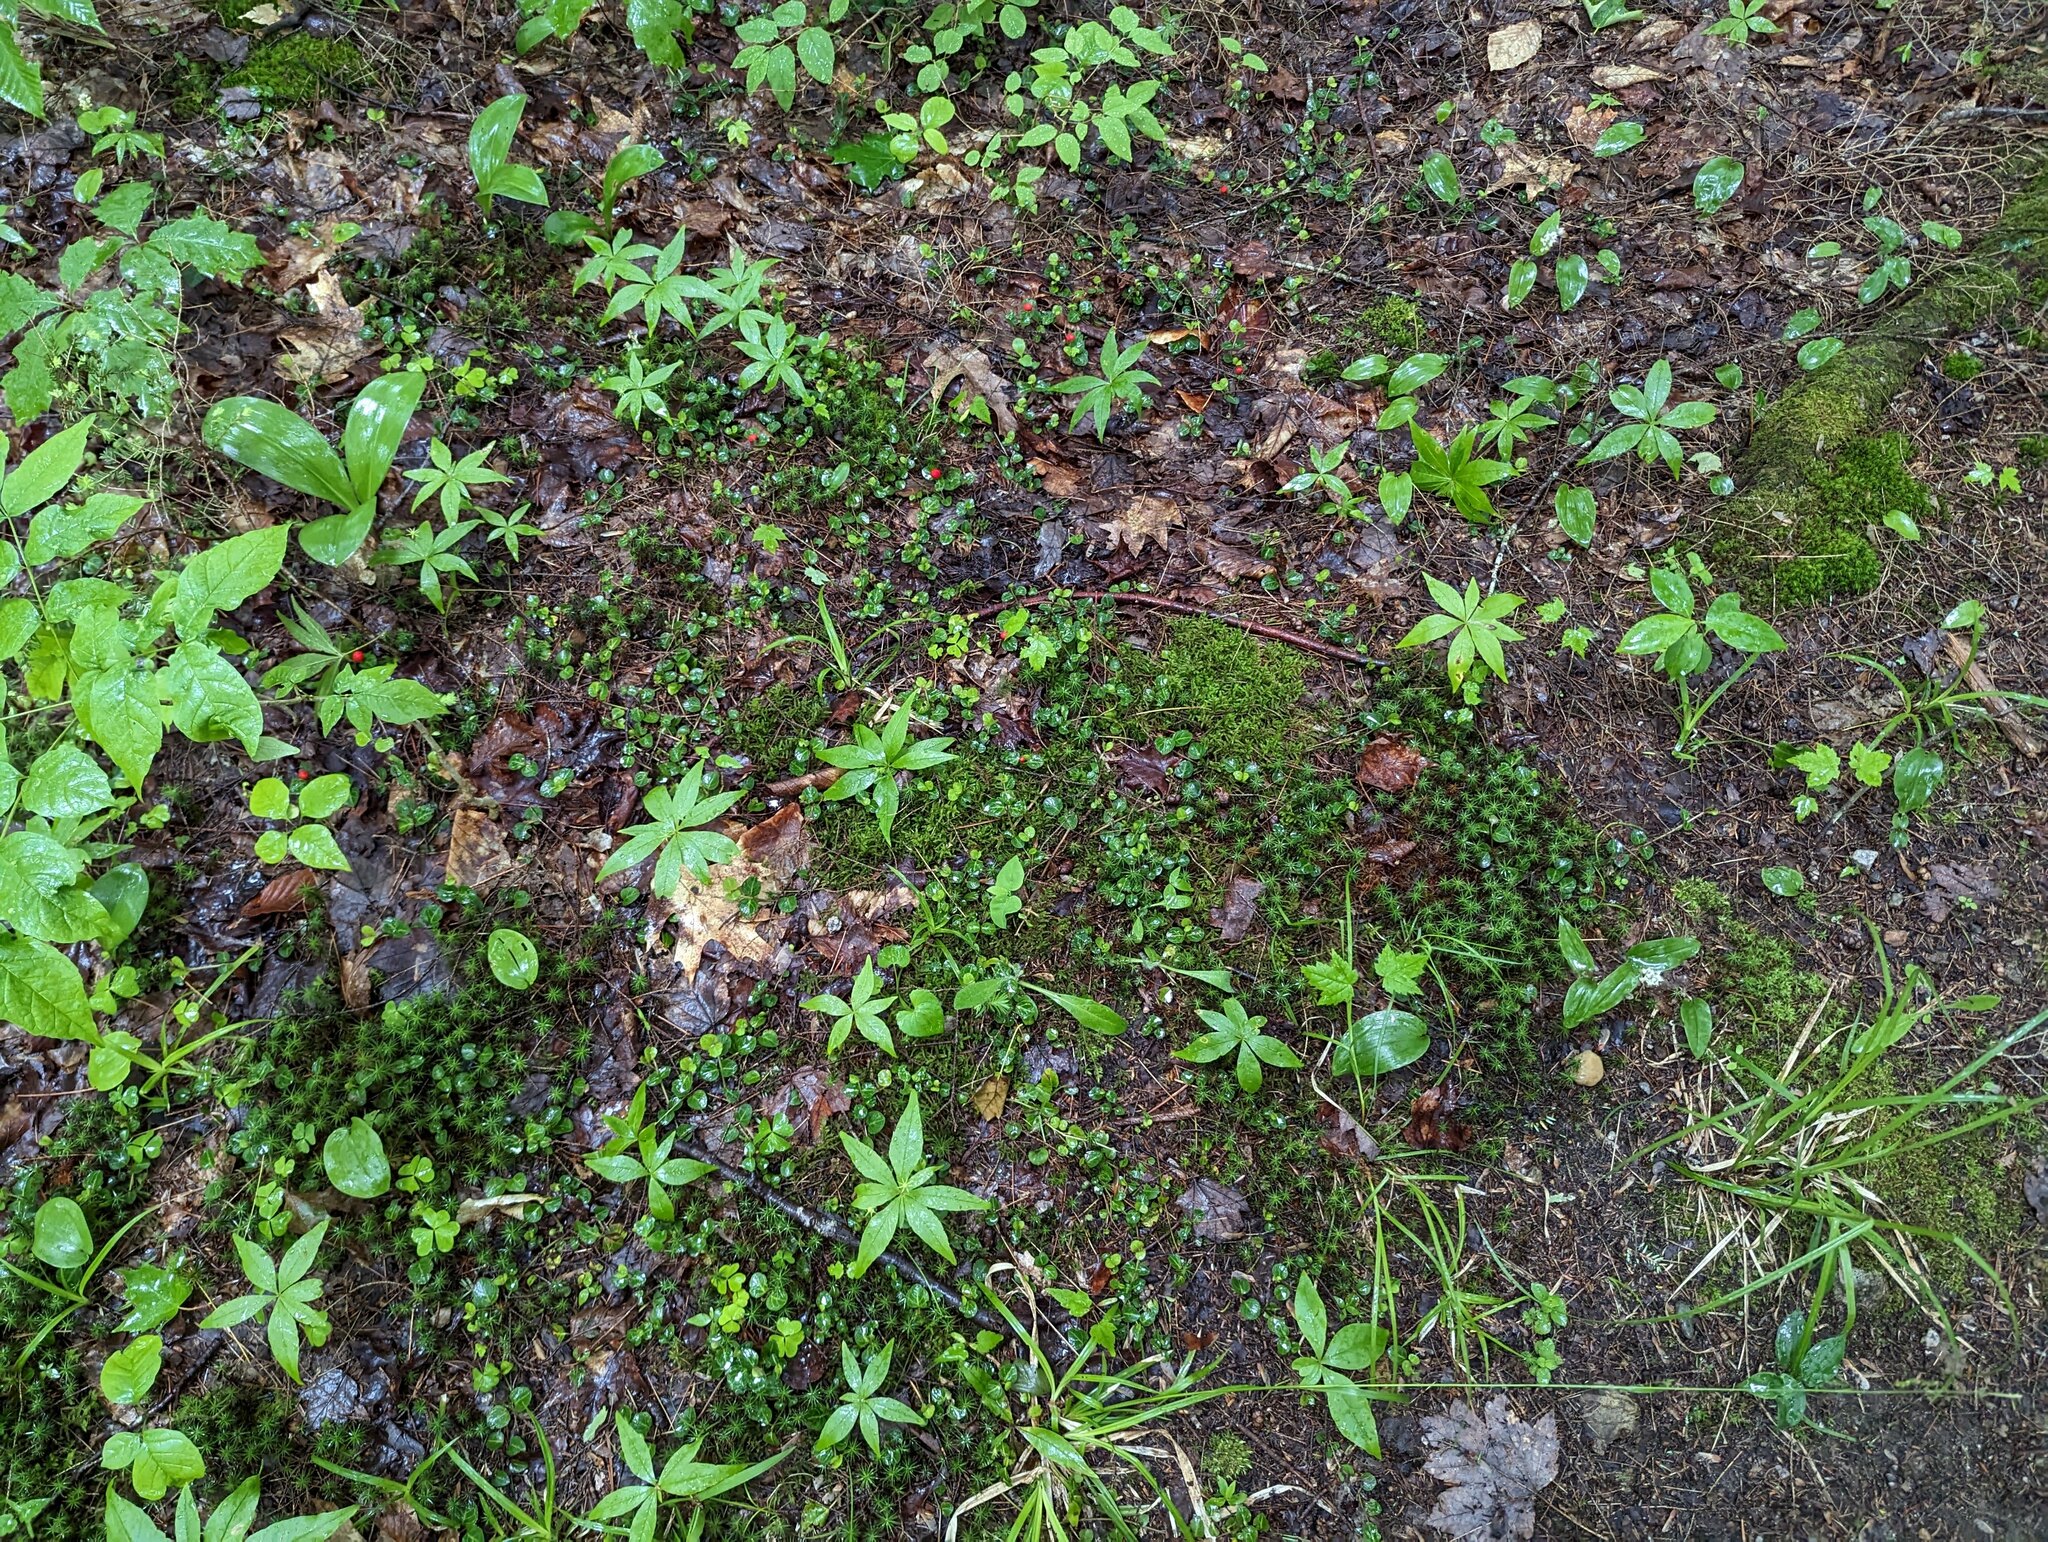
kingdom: Plantae
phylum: Tracheophyta
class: Magnoliopsida
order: Gentianales
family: Rubiaceae
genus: Mitchella
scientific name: Mitchella repens
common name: Partridge-berry
